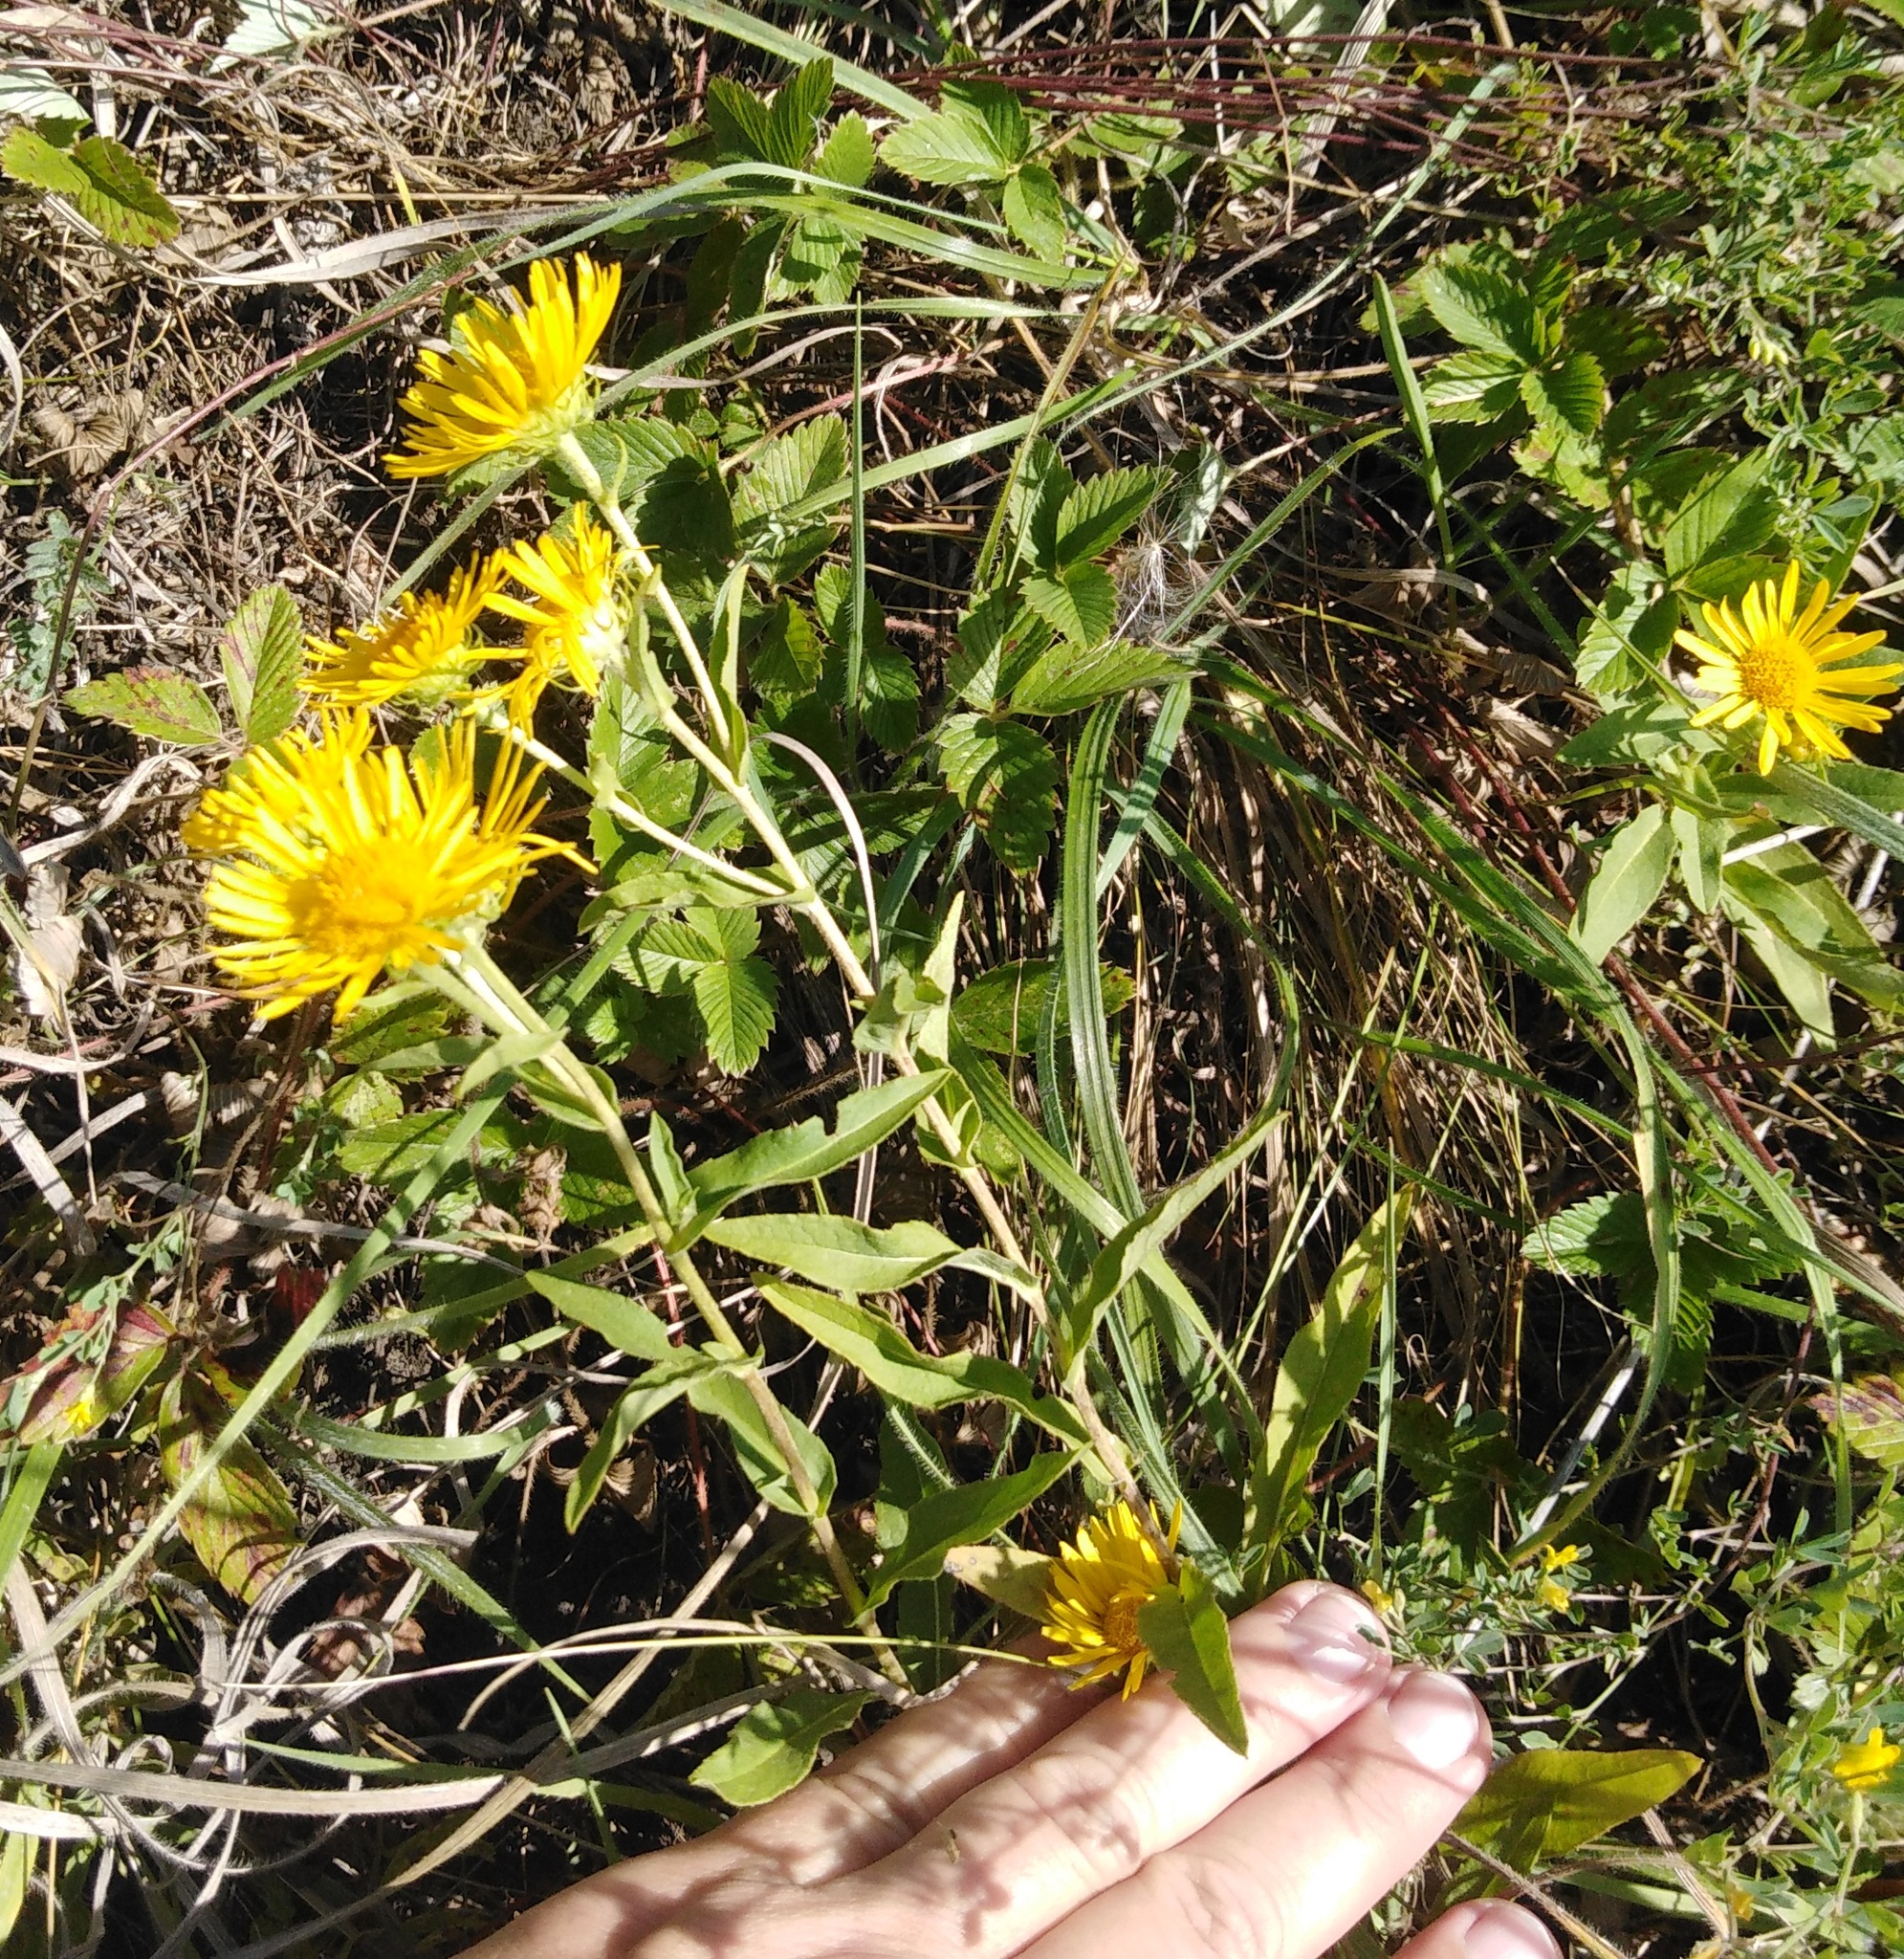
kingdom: Plantae
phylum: Tracheophyta
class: Magnoliopsida
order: Asterales
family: Asteraceae
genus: Pentanema
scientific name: Pentanema britannicum
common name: British elecampane
